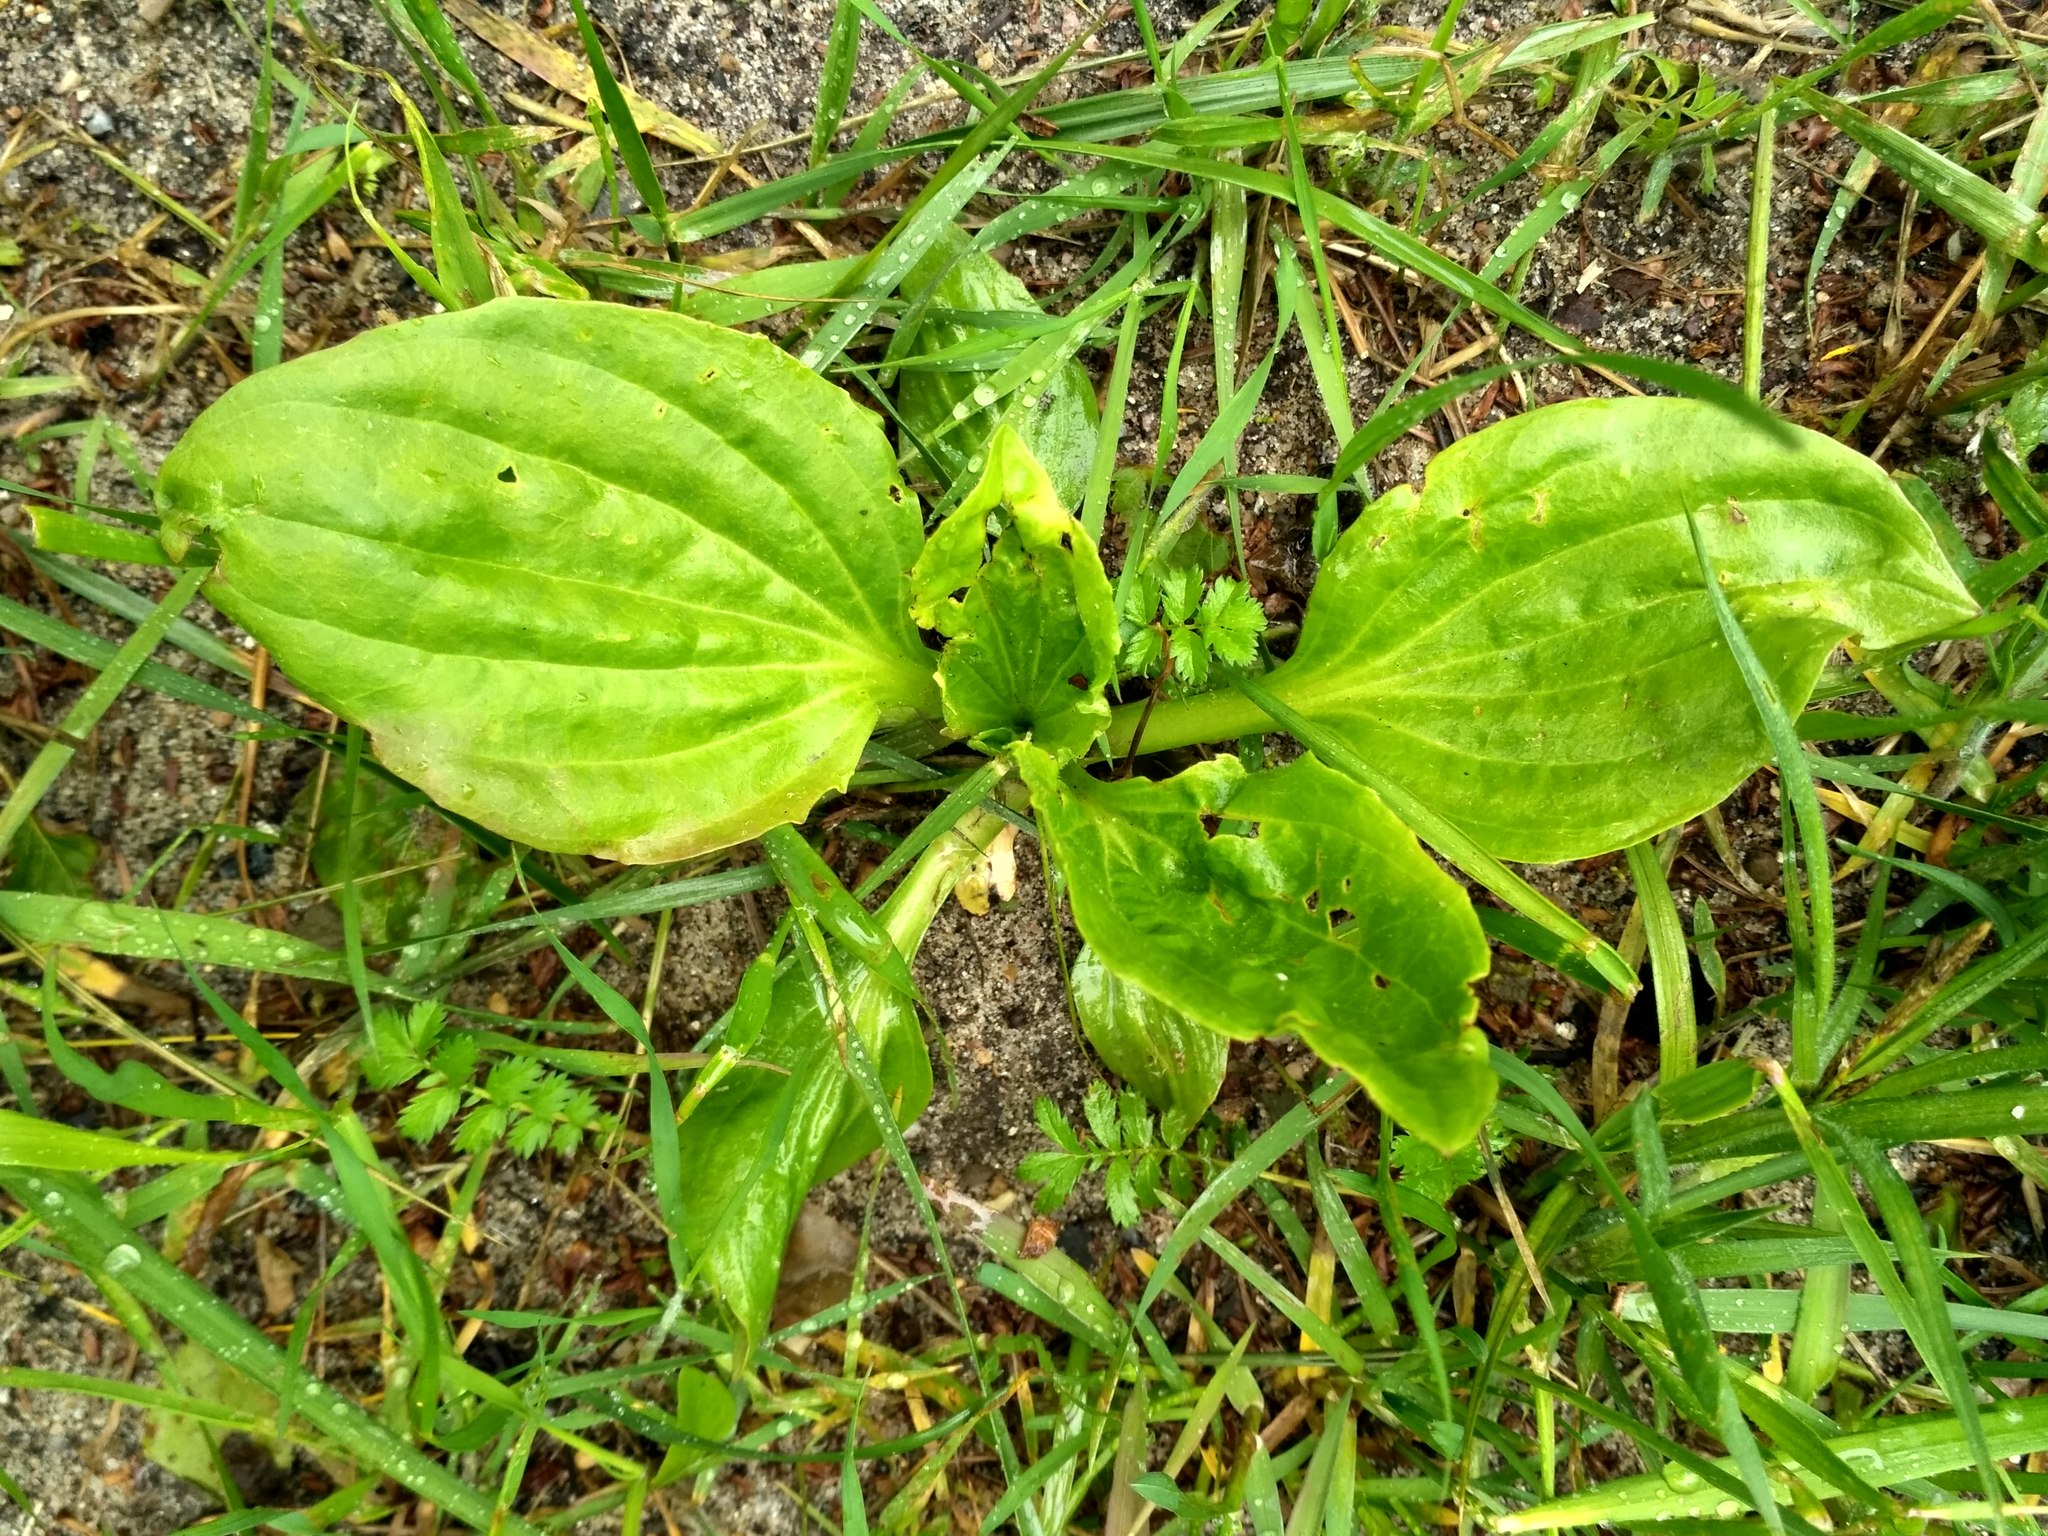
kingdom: Plantae
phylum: Tracheophyta
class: Magnoliopsida
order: Lamiales
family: Plantaginaceae
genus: Plantago
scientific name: Plantago major
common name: Common plantain
